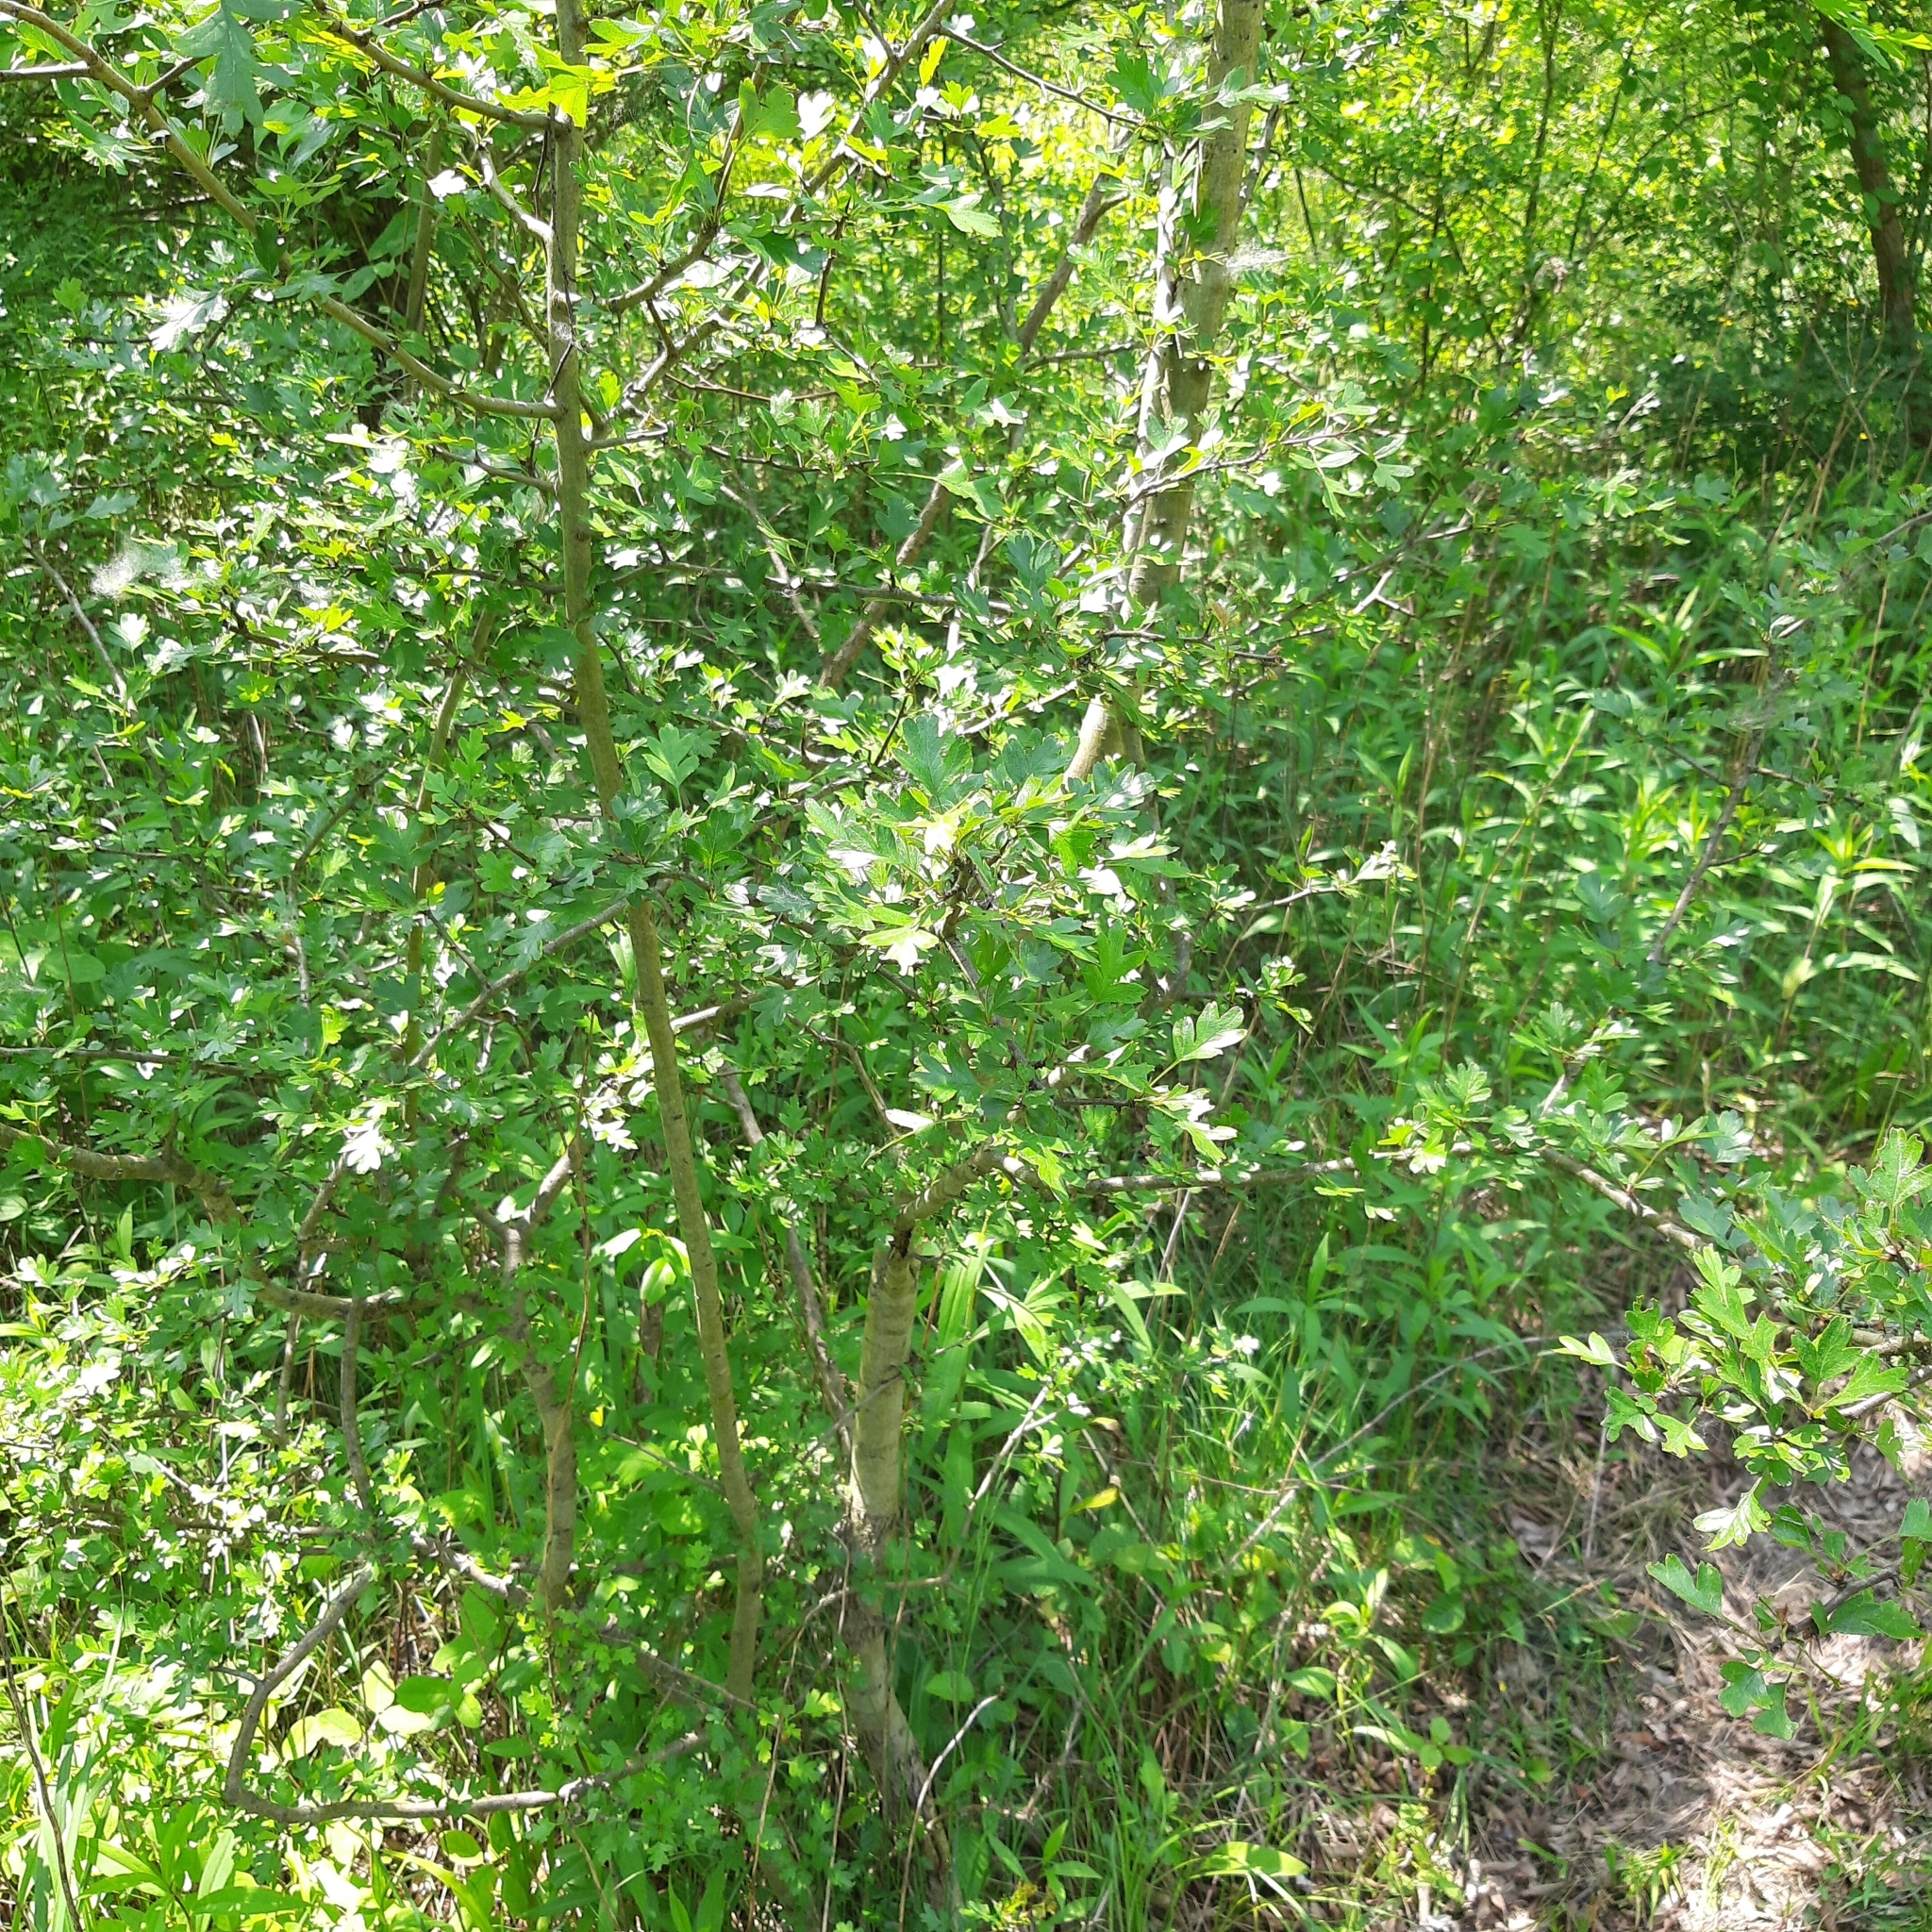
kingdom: Plantae
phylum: Tracheophyta
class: Magnoliopsida
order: Rosales
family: Rosaceae
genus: Crataegus
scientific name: Crataegus monogyna
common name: Hawthorn
